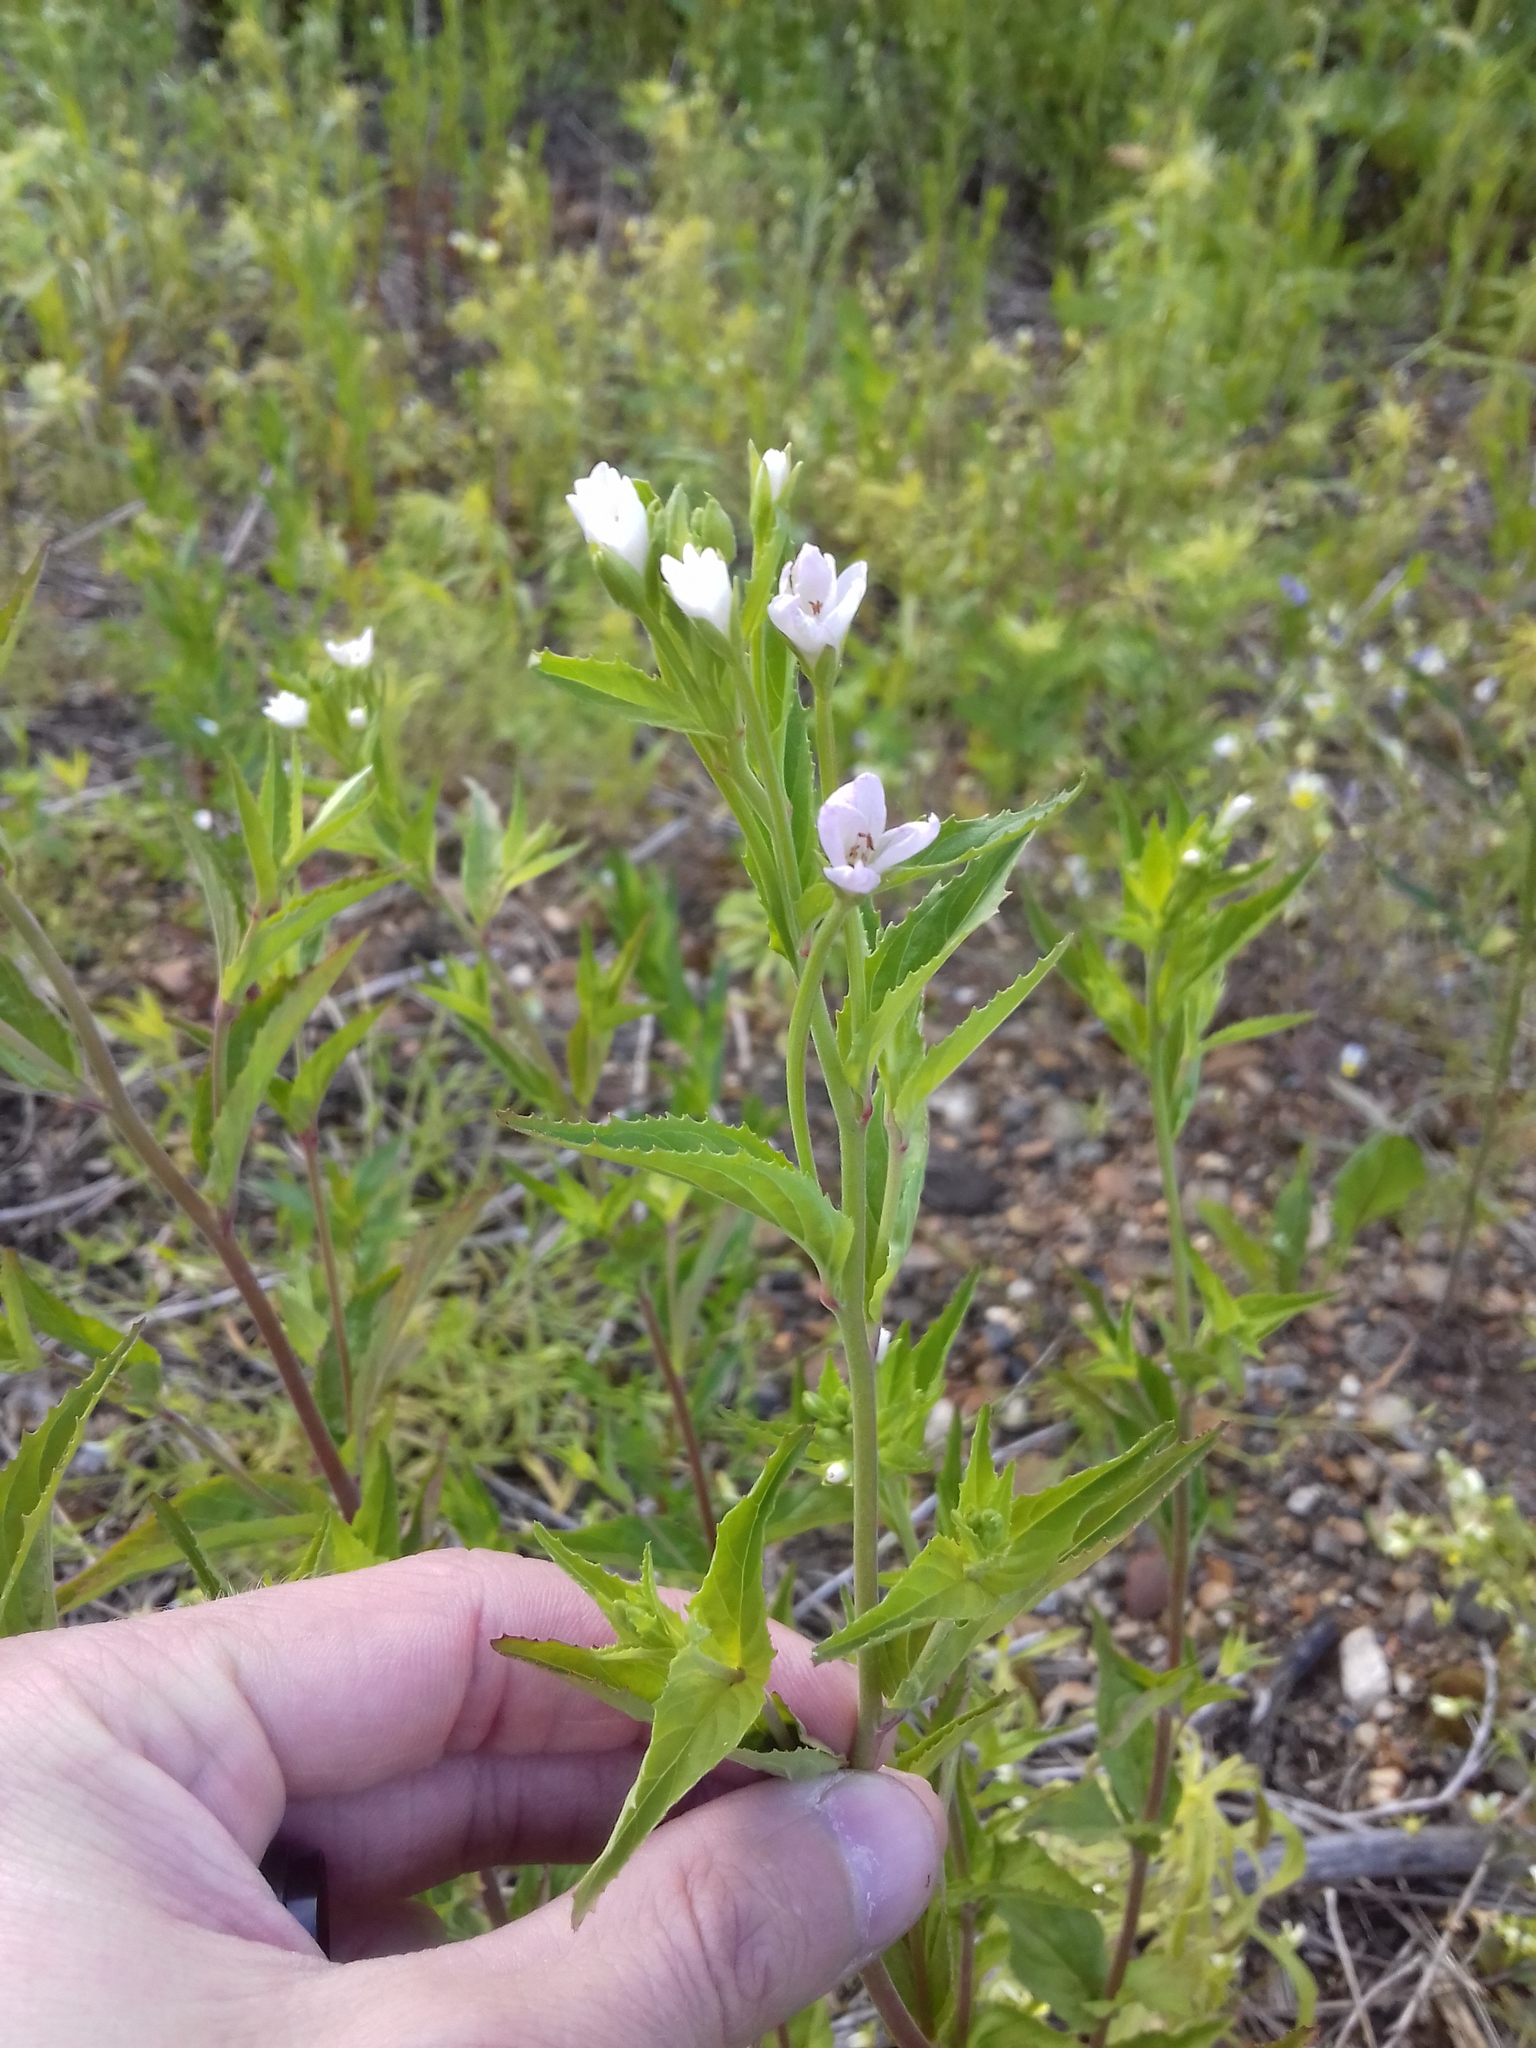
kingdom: Plantae
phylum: Tracheophyta
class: Magnoliopsida
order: Myrtales
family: Onagraceae
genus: Epilobium
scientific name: Epilobium montanum
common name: Broad-leaved willowherb
